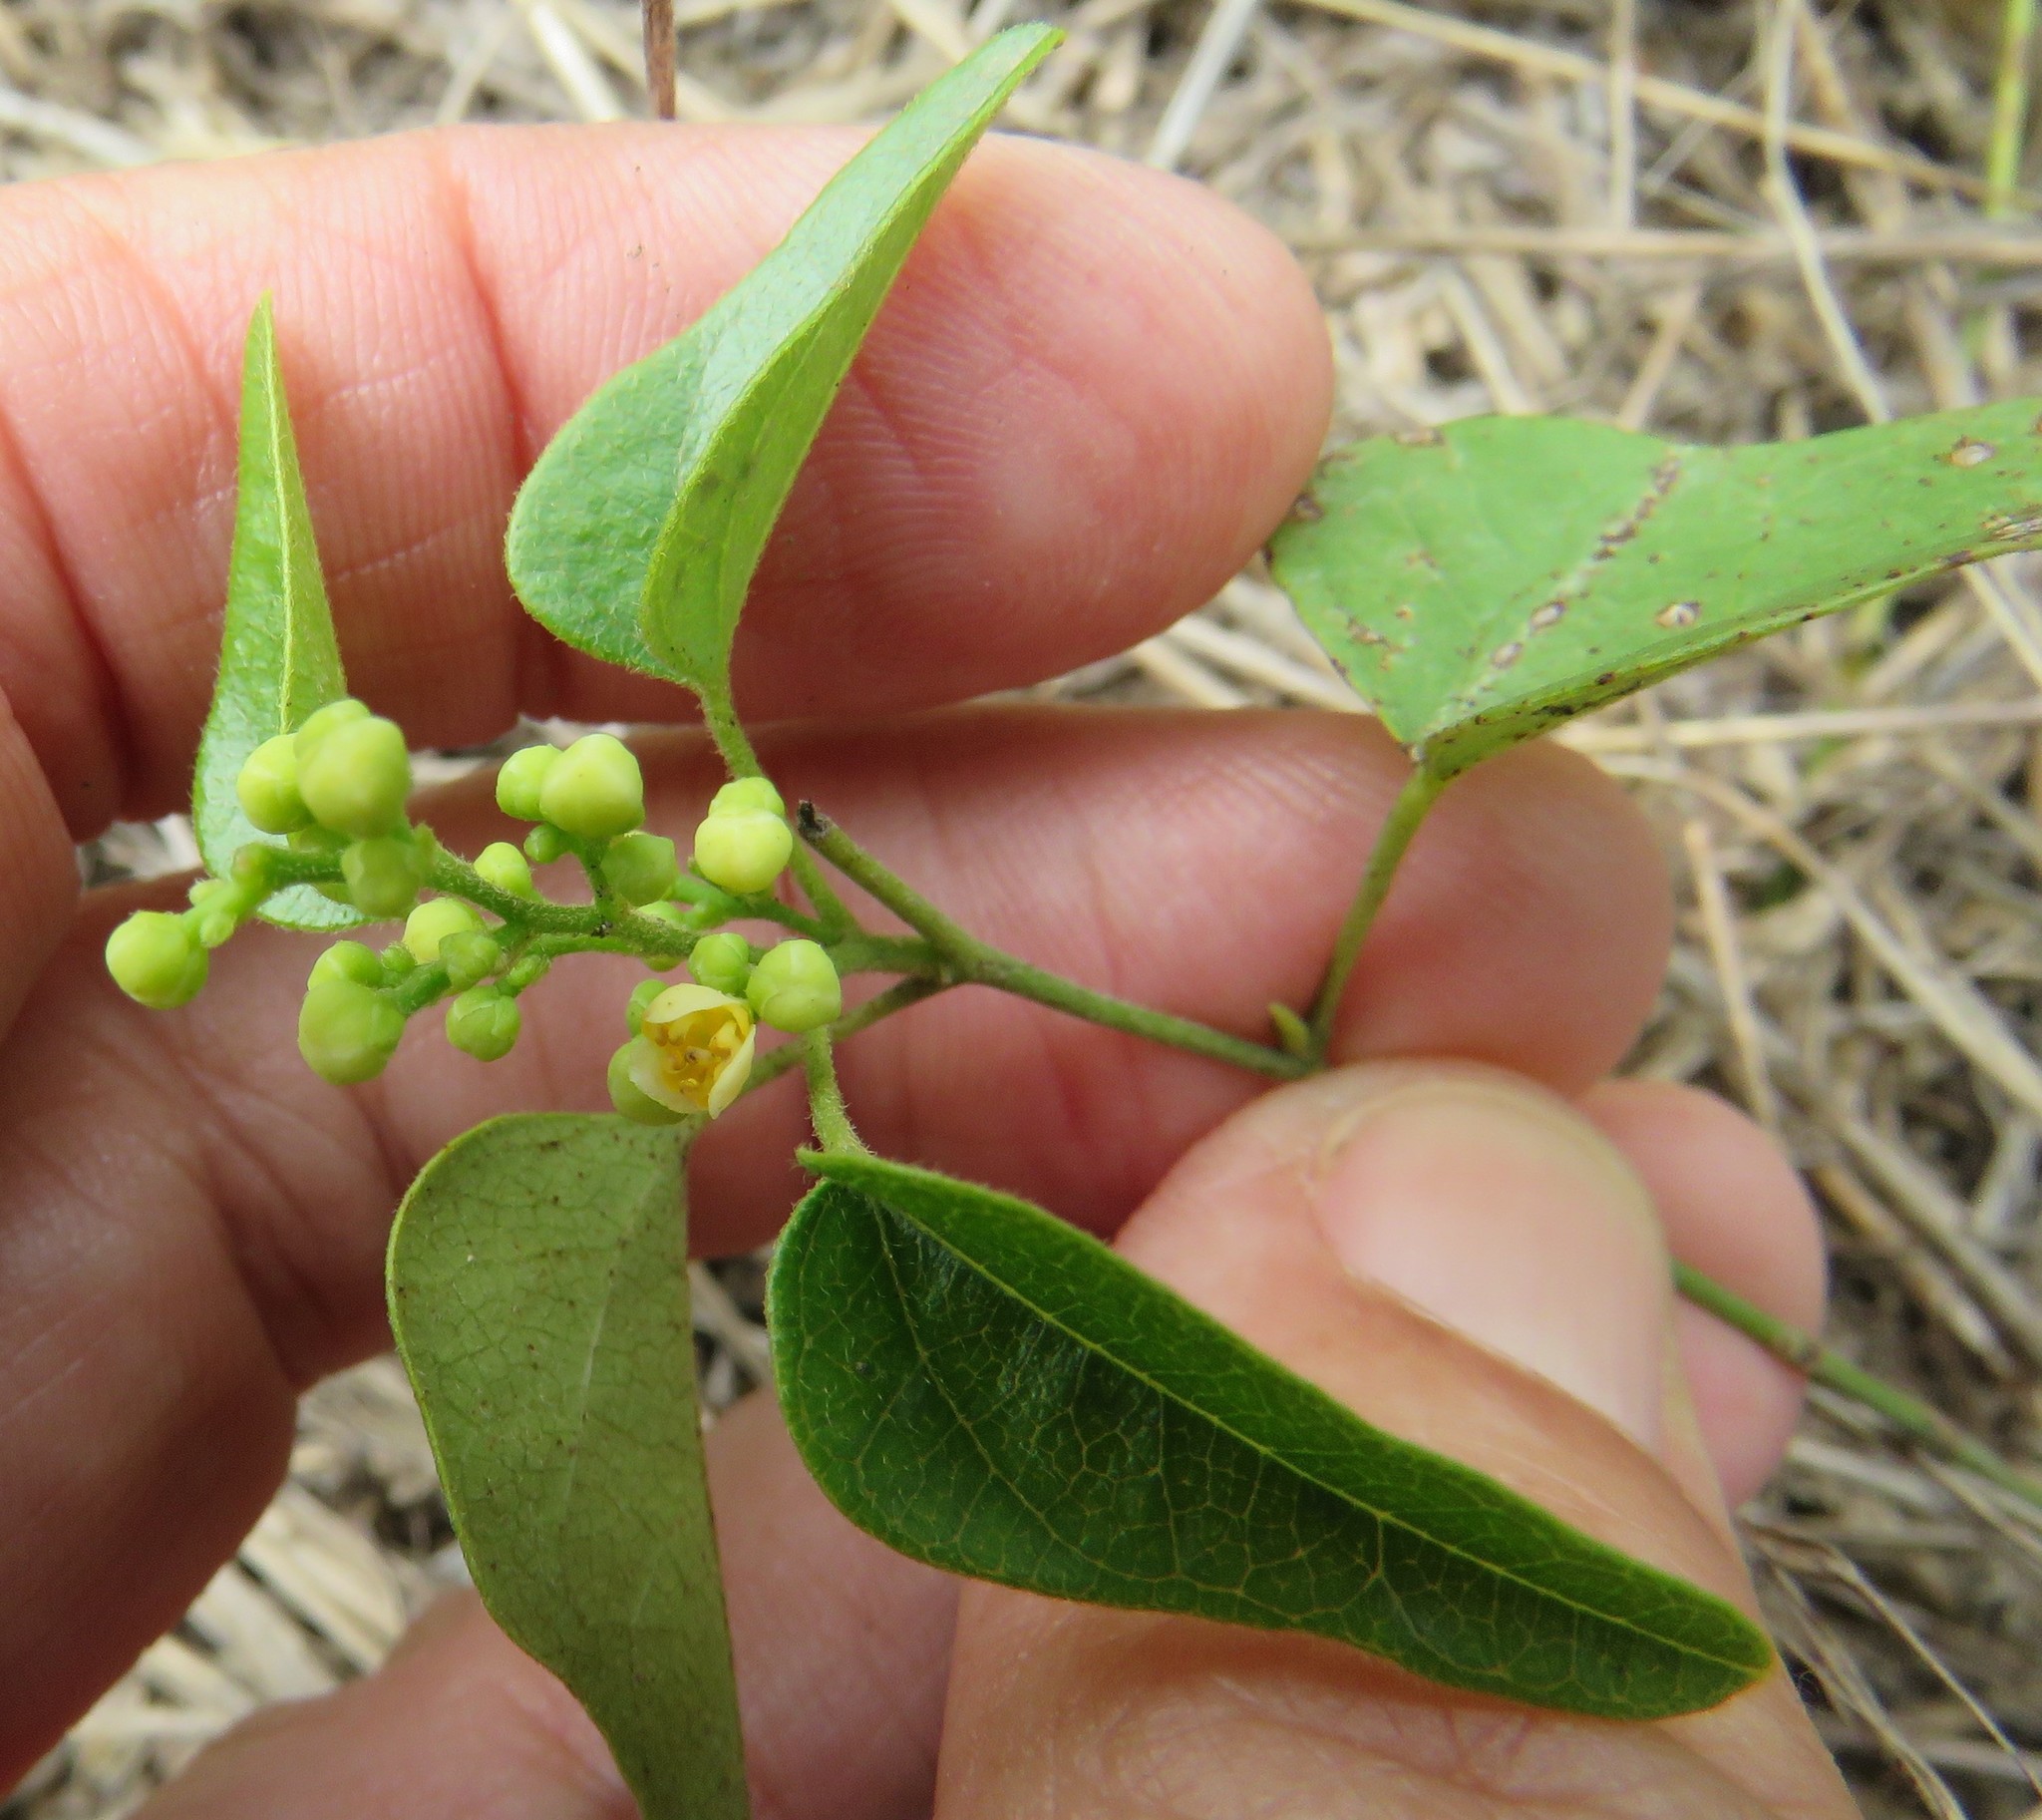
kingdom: Plantae
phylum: Tracheophyta
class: Magnoliopsida
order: Ranunculales
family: Menispermaceae
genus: Cocculus
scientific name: Cocculus carolinus
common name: Carolina moonseed
